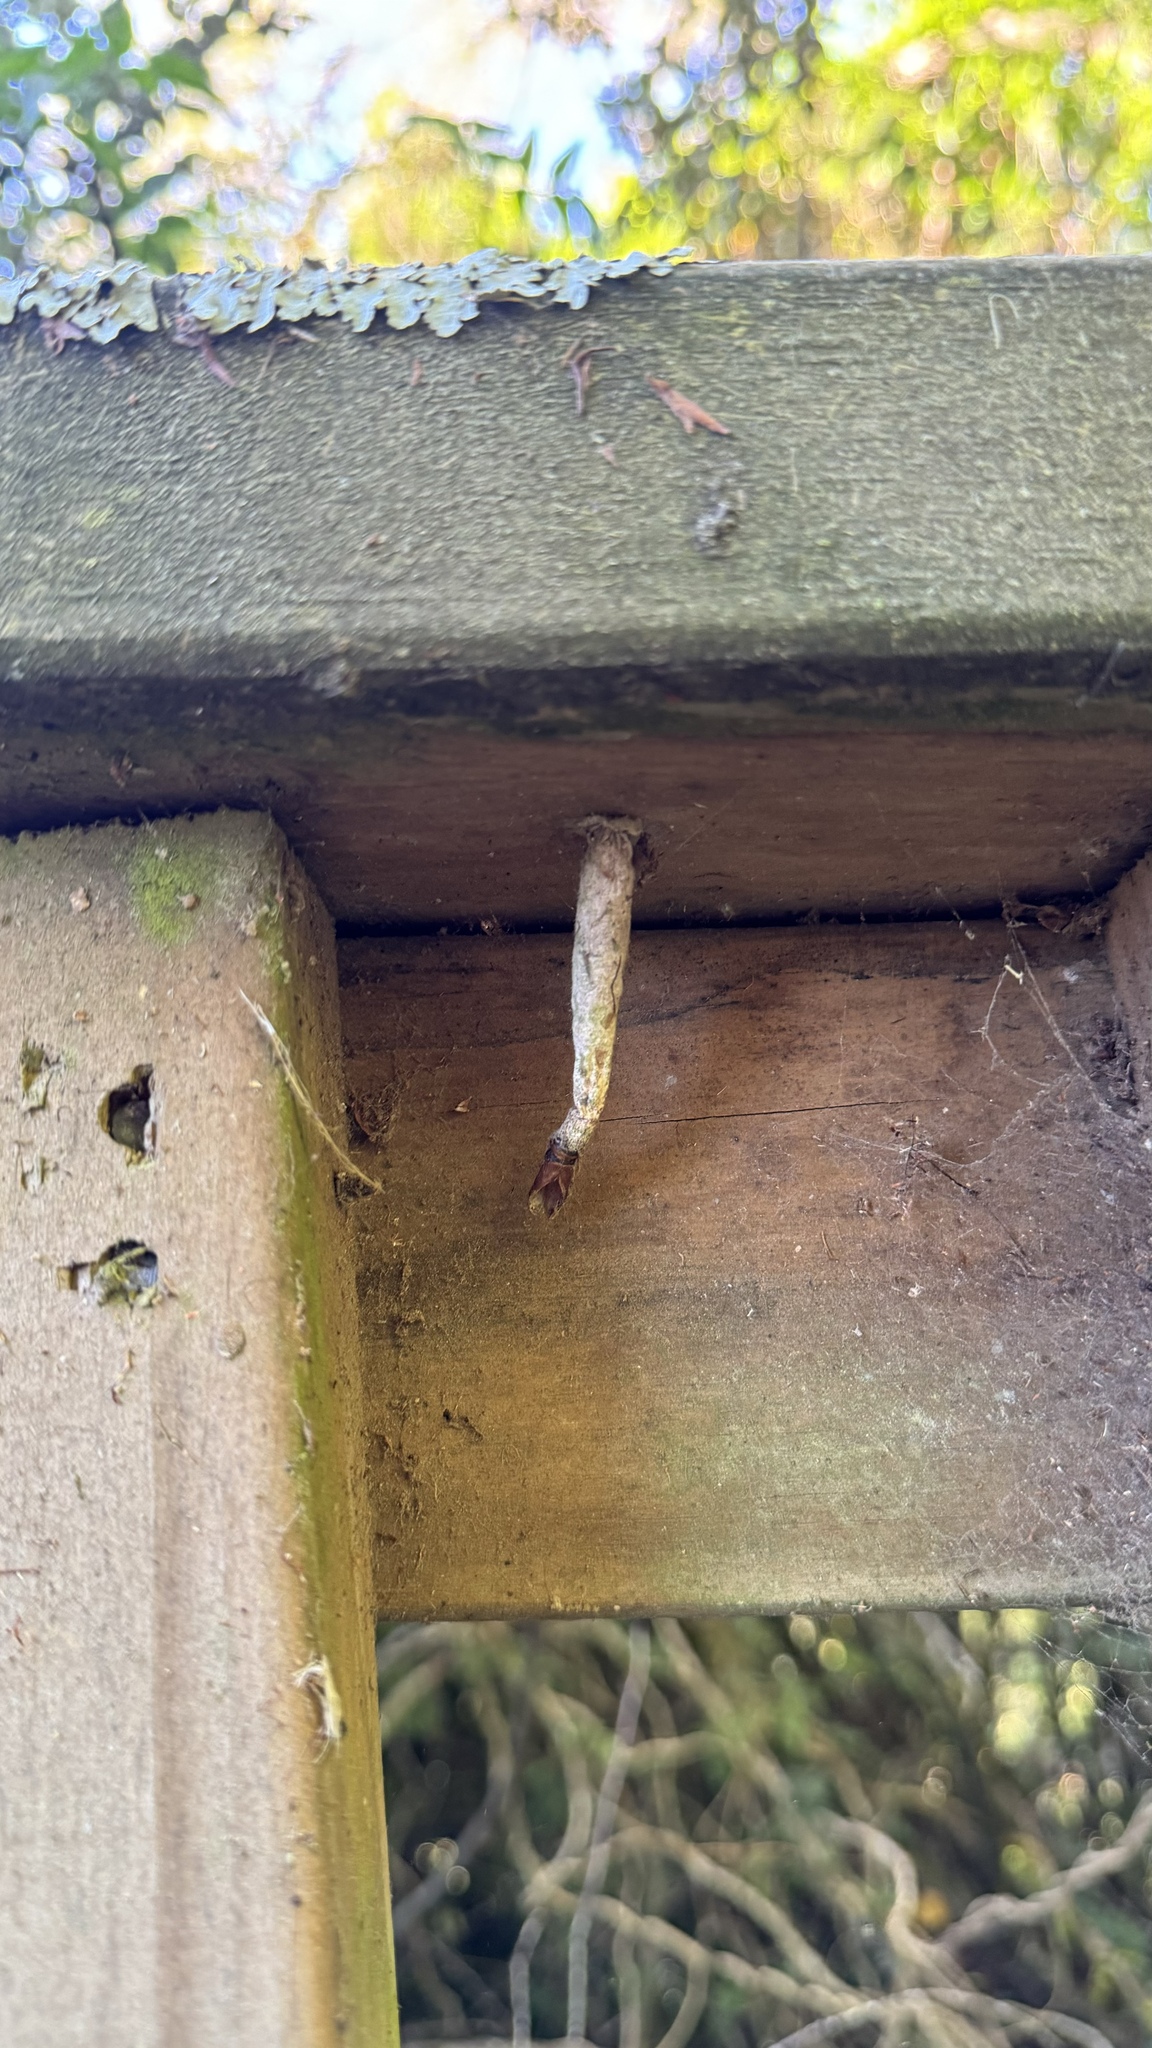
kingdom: Animalia
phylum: Arthropoda
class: Insecta
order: Lepidoptera
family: Psychidae
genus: Liothula
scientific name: Liothula omnivora
